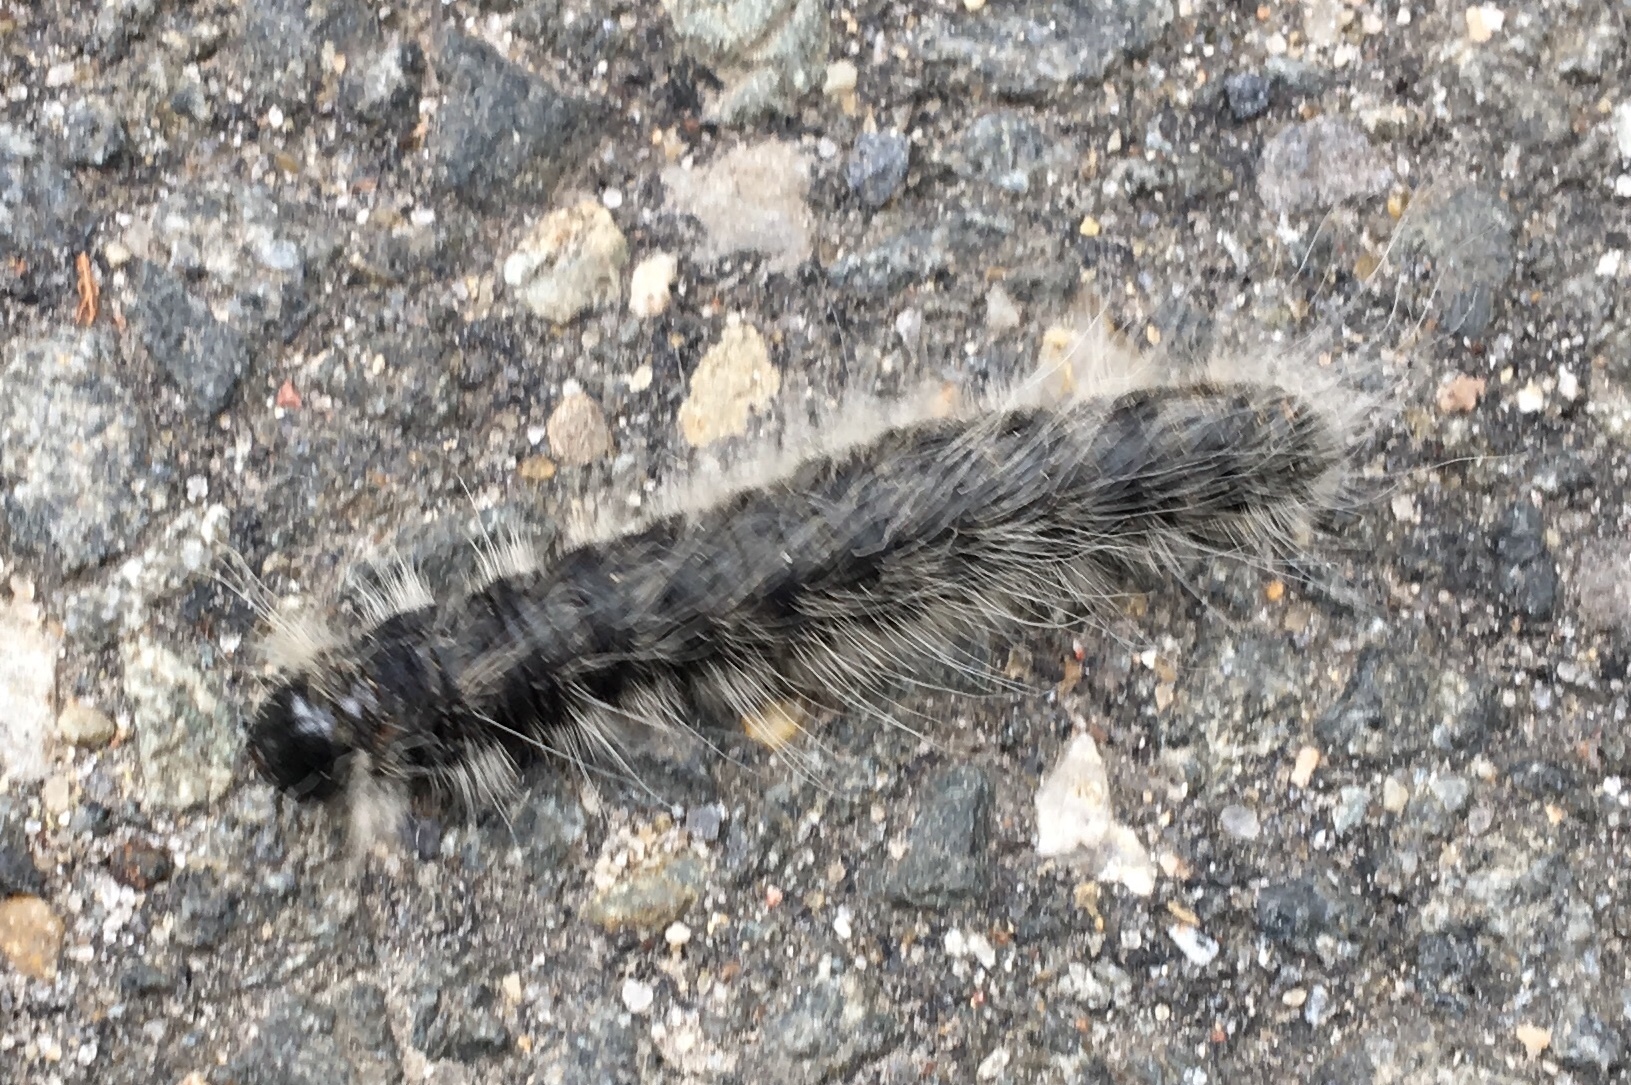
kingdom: Animalia
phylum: Arthropoda
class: Insecta
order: Lepidoptera
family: Notodontidae
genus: Datana
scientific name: Datana integerrima
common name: Walnut caterpillar
